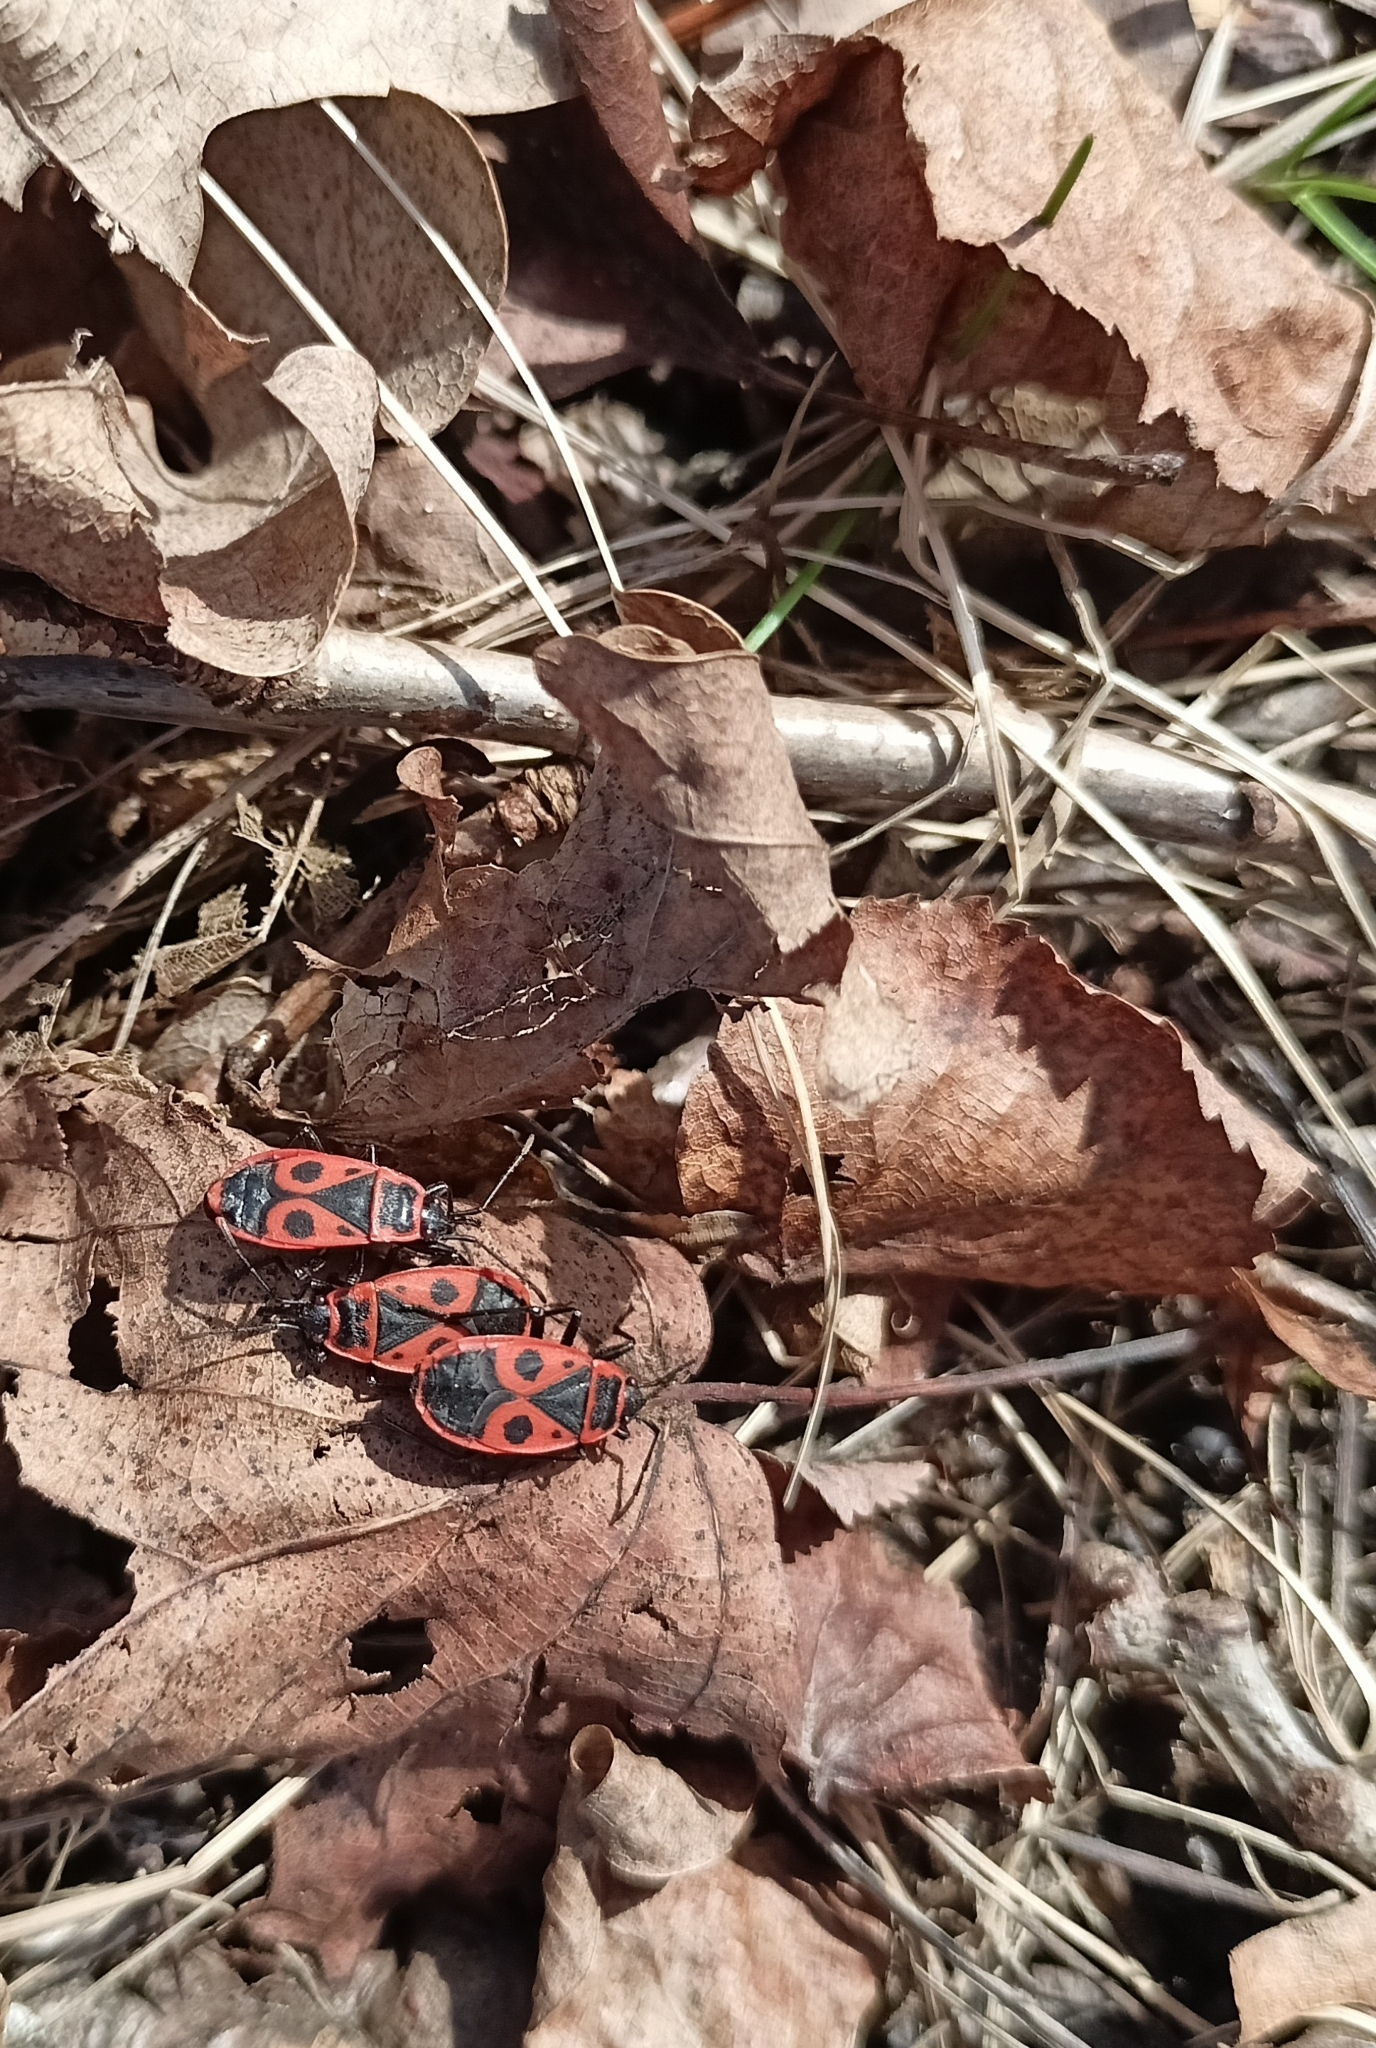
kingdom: Animalia
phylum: Arthropoda
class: Insecta
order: Hemiptera
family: Pyrrhocoridae
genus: Pyrrhocoris
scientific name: Pyrrhocoris apterus
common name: Firebug
